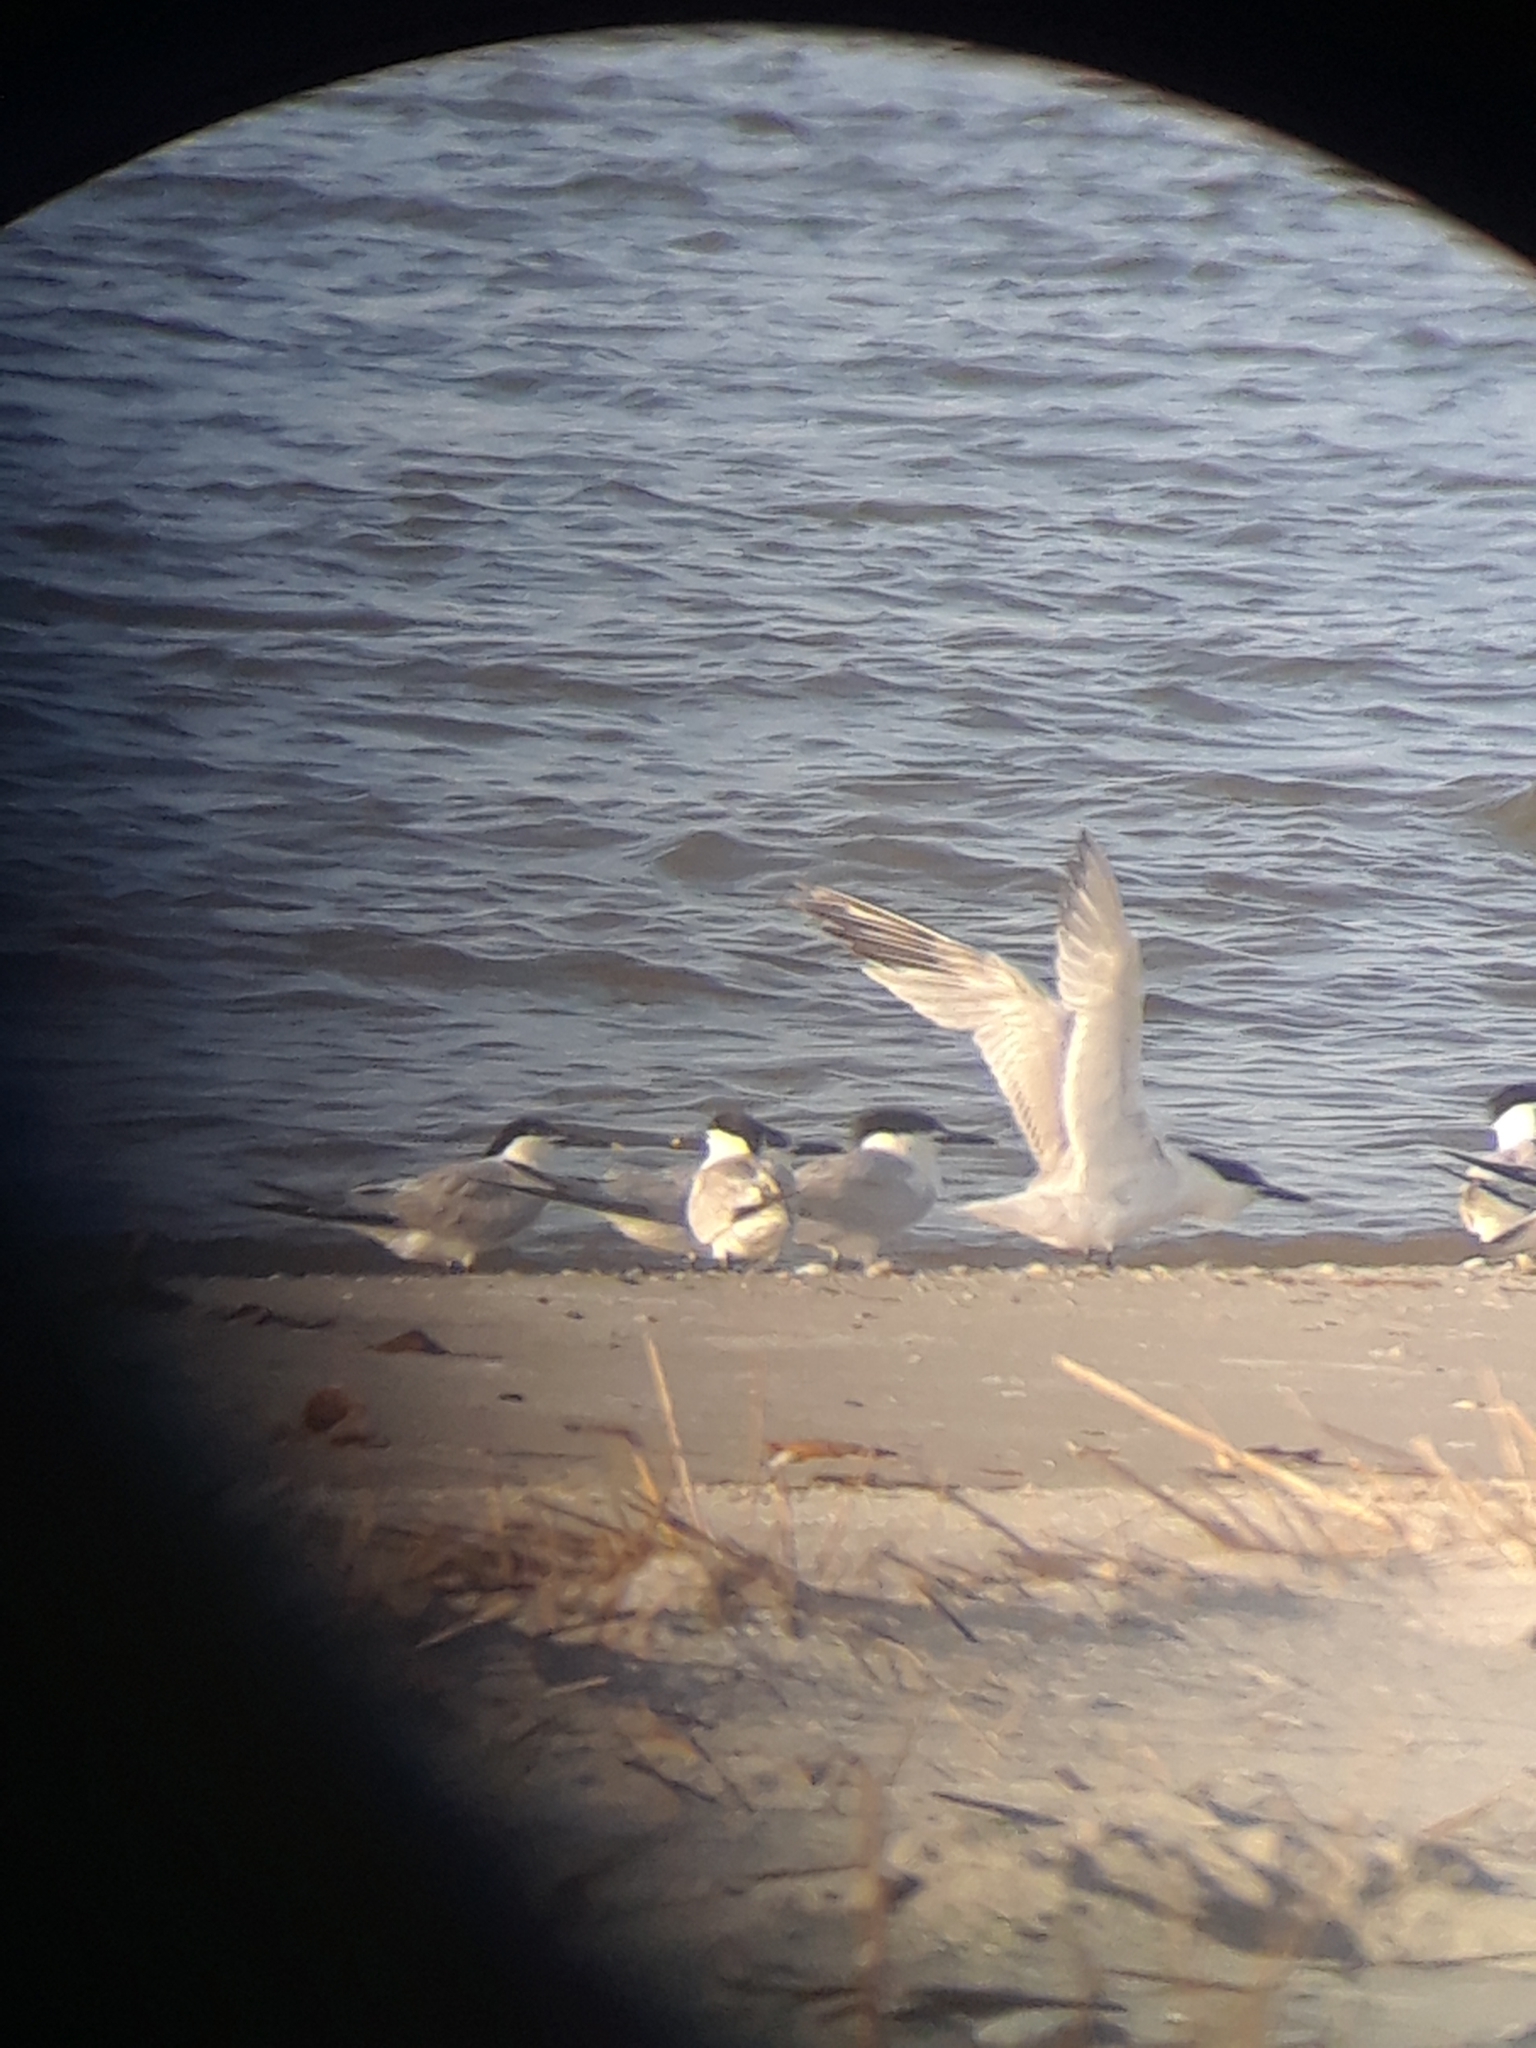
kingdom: Animalia
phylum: Chordata
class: Aves
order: Charadriiformes
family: Laridae
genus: Thalasseus
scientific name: Thalasseus sandvicensis
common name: Sandwich tern
